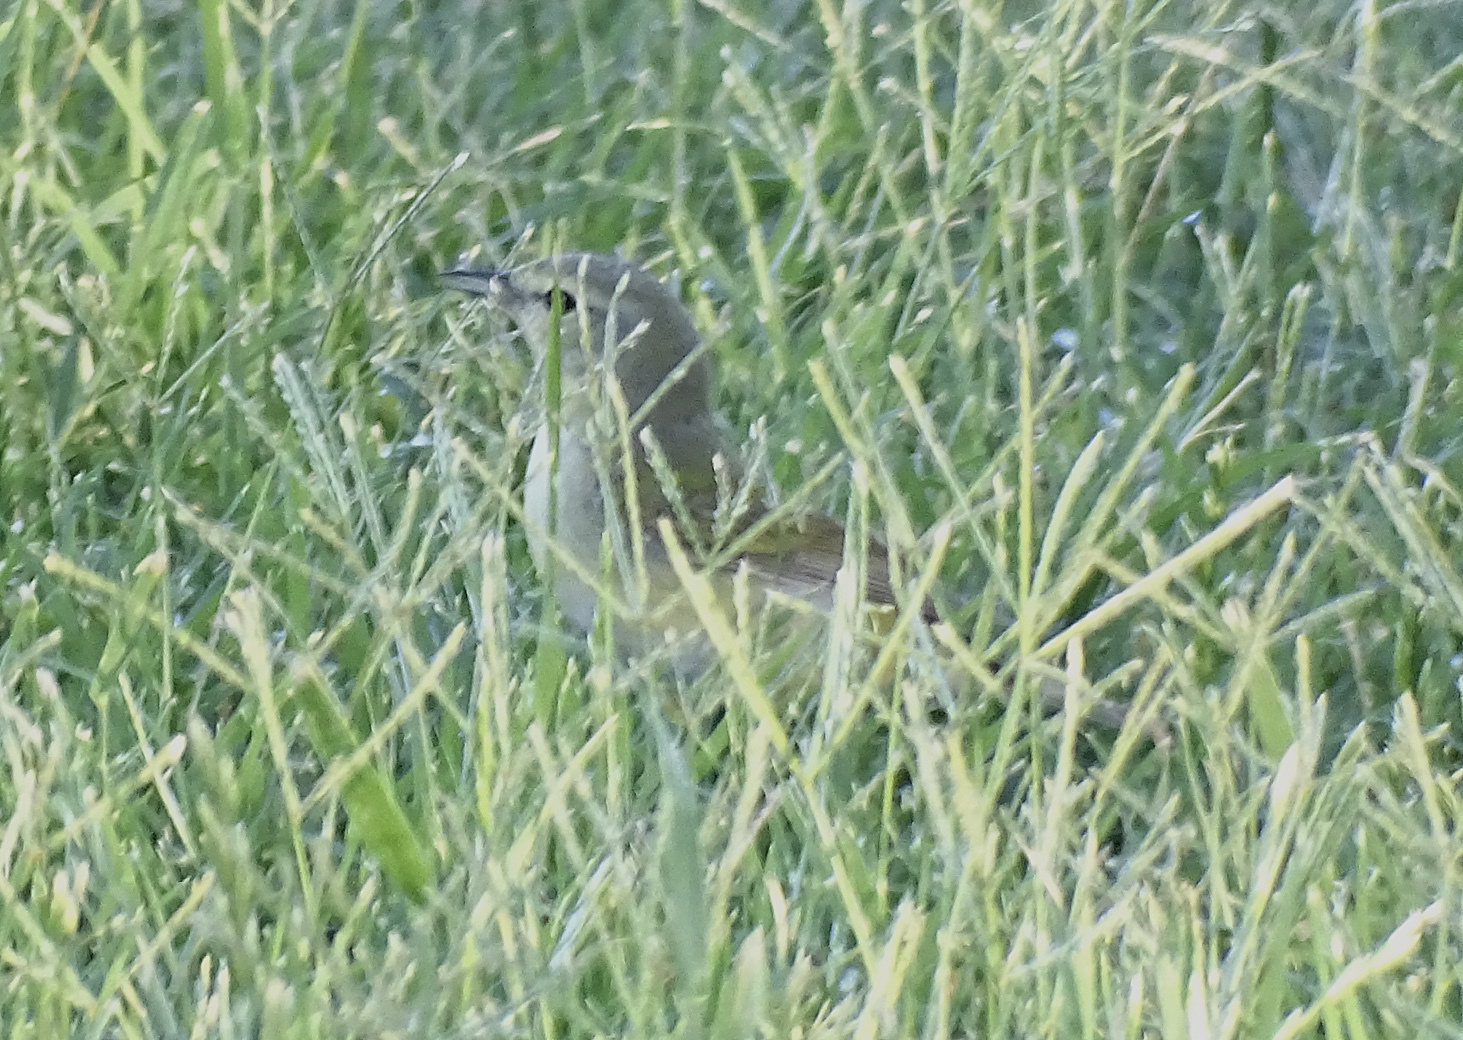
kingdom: Animalia
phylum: Chordata
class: Aves
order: Passeriformes
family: Parulidae
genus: Leiothlypis
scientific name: Leiothlypis peregrina
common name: Tennessee warbler
